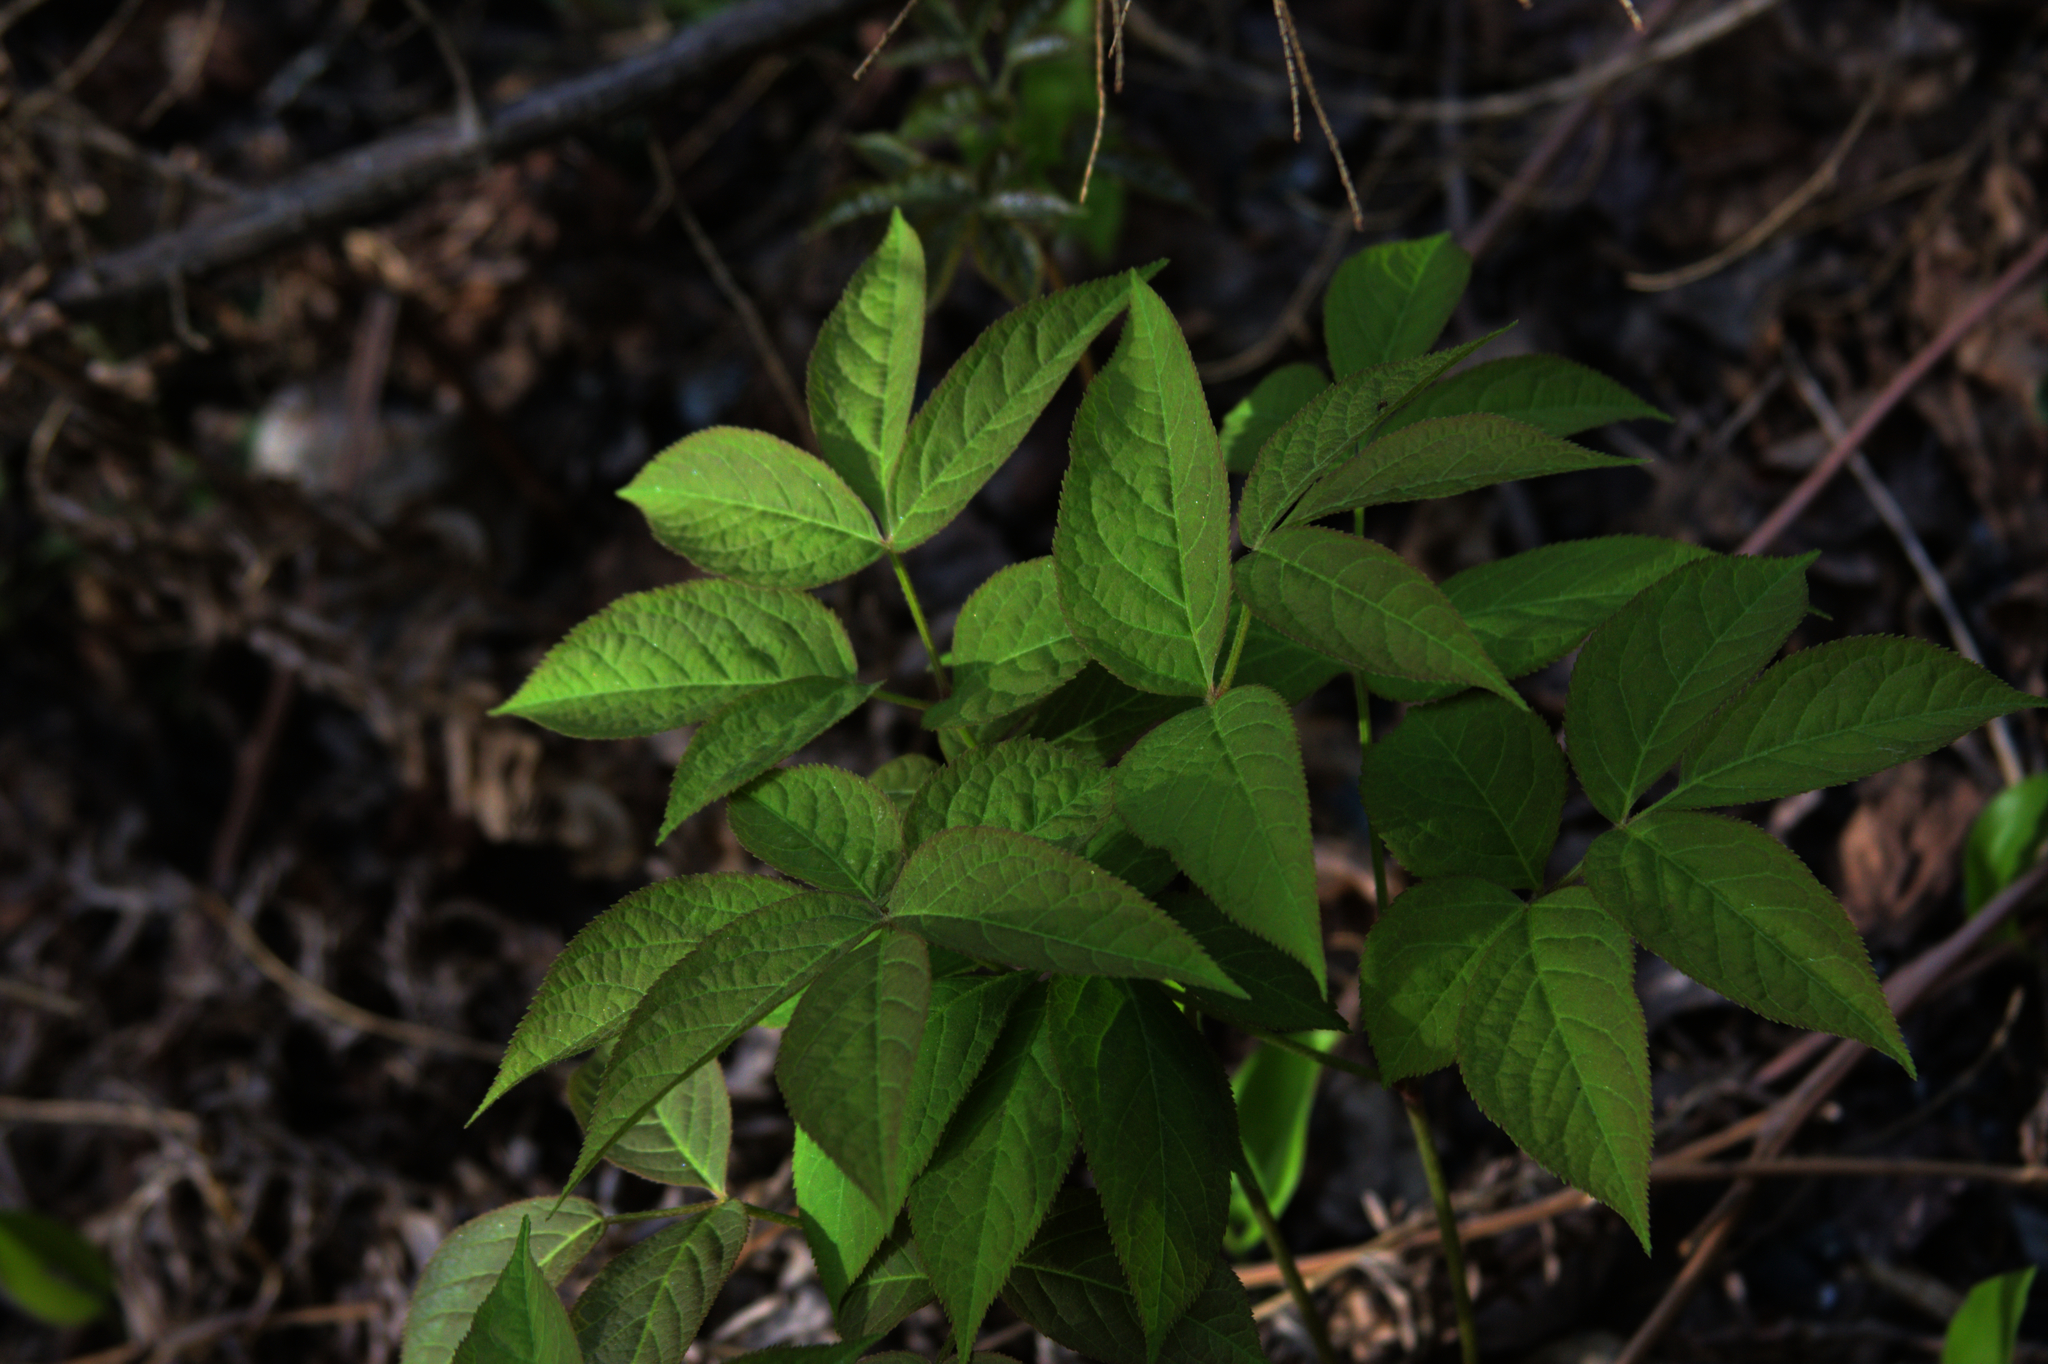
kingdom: Plantae
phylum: Tracheophyta
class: Magnoliopsida
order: Apiales
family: Araliaceae
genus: Aralia
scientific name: Aralia nudicaulis
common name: Wild sarsaparilla
